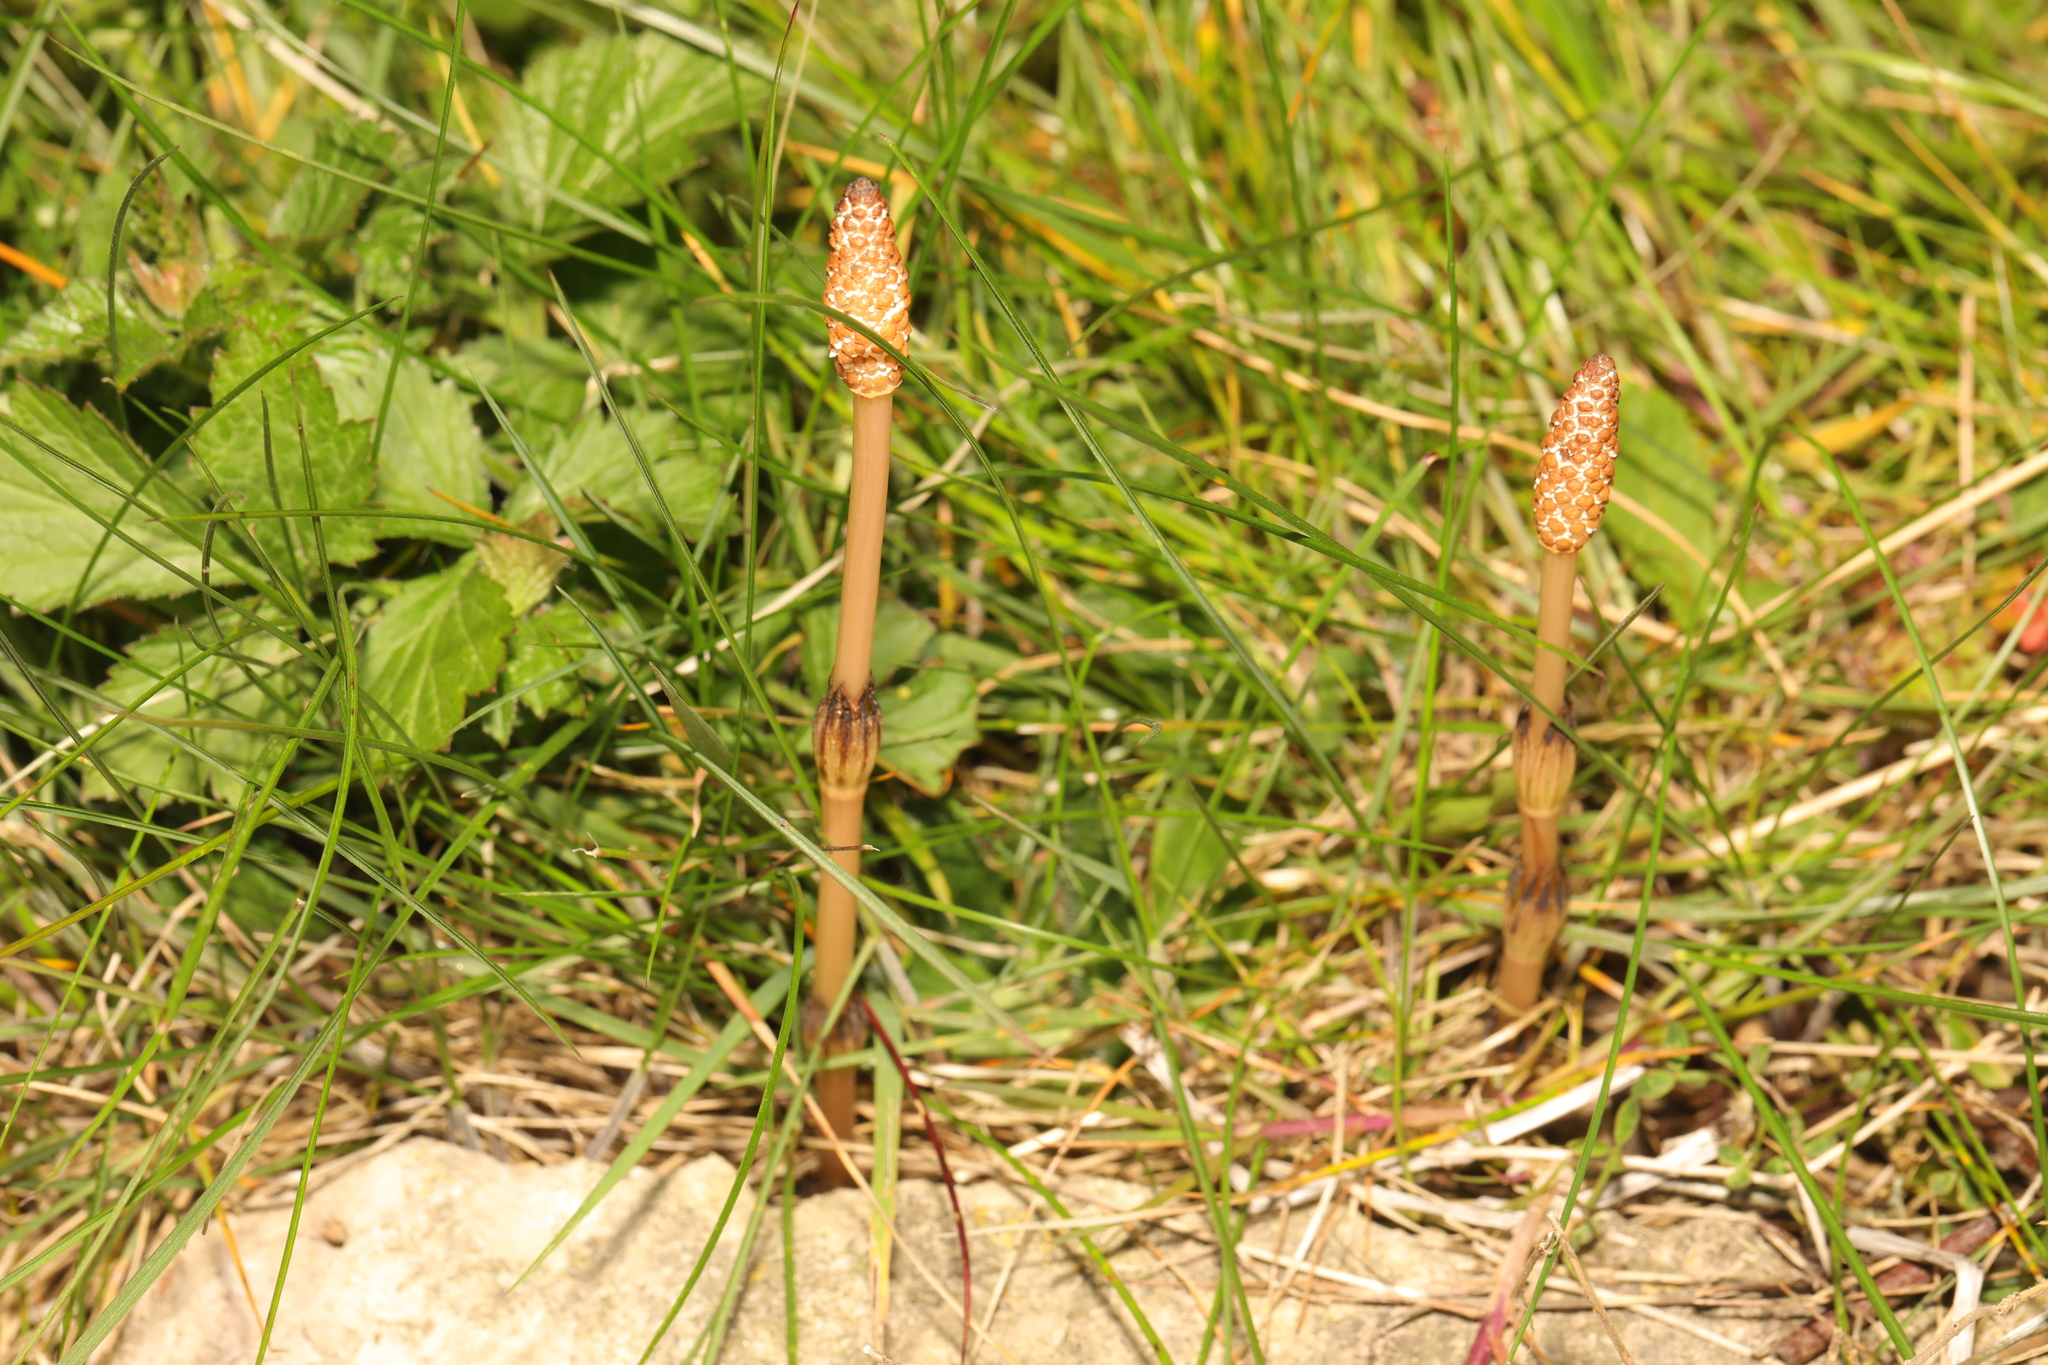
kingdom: Plantae
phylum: Tracheophyta
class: Polypodiopsida
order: Equisetales
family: Equisetaceae
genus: Equisetum
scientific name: Equisetum arvense
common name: Field horsetail
